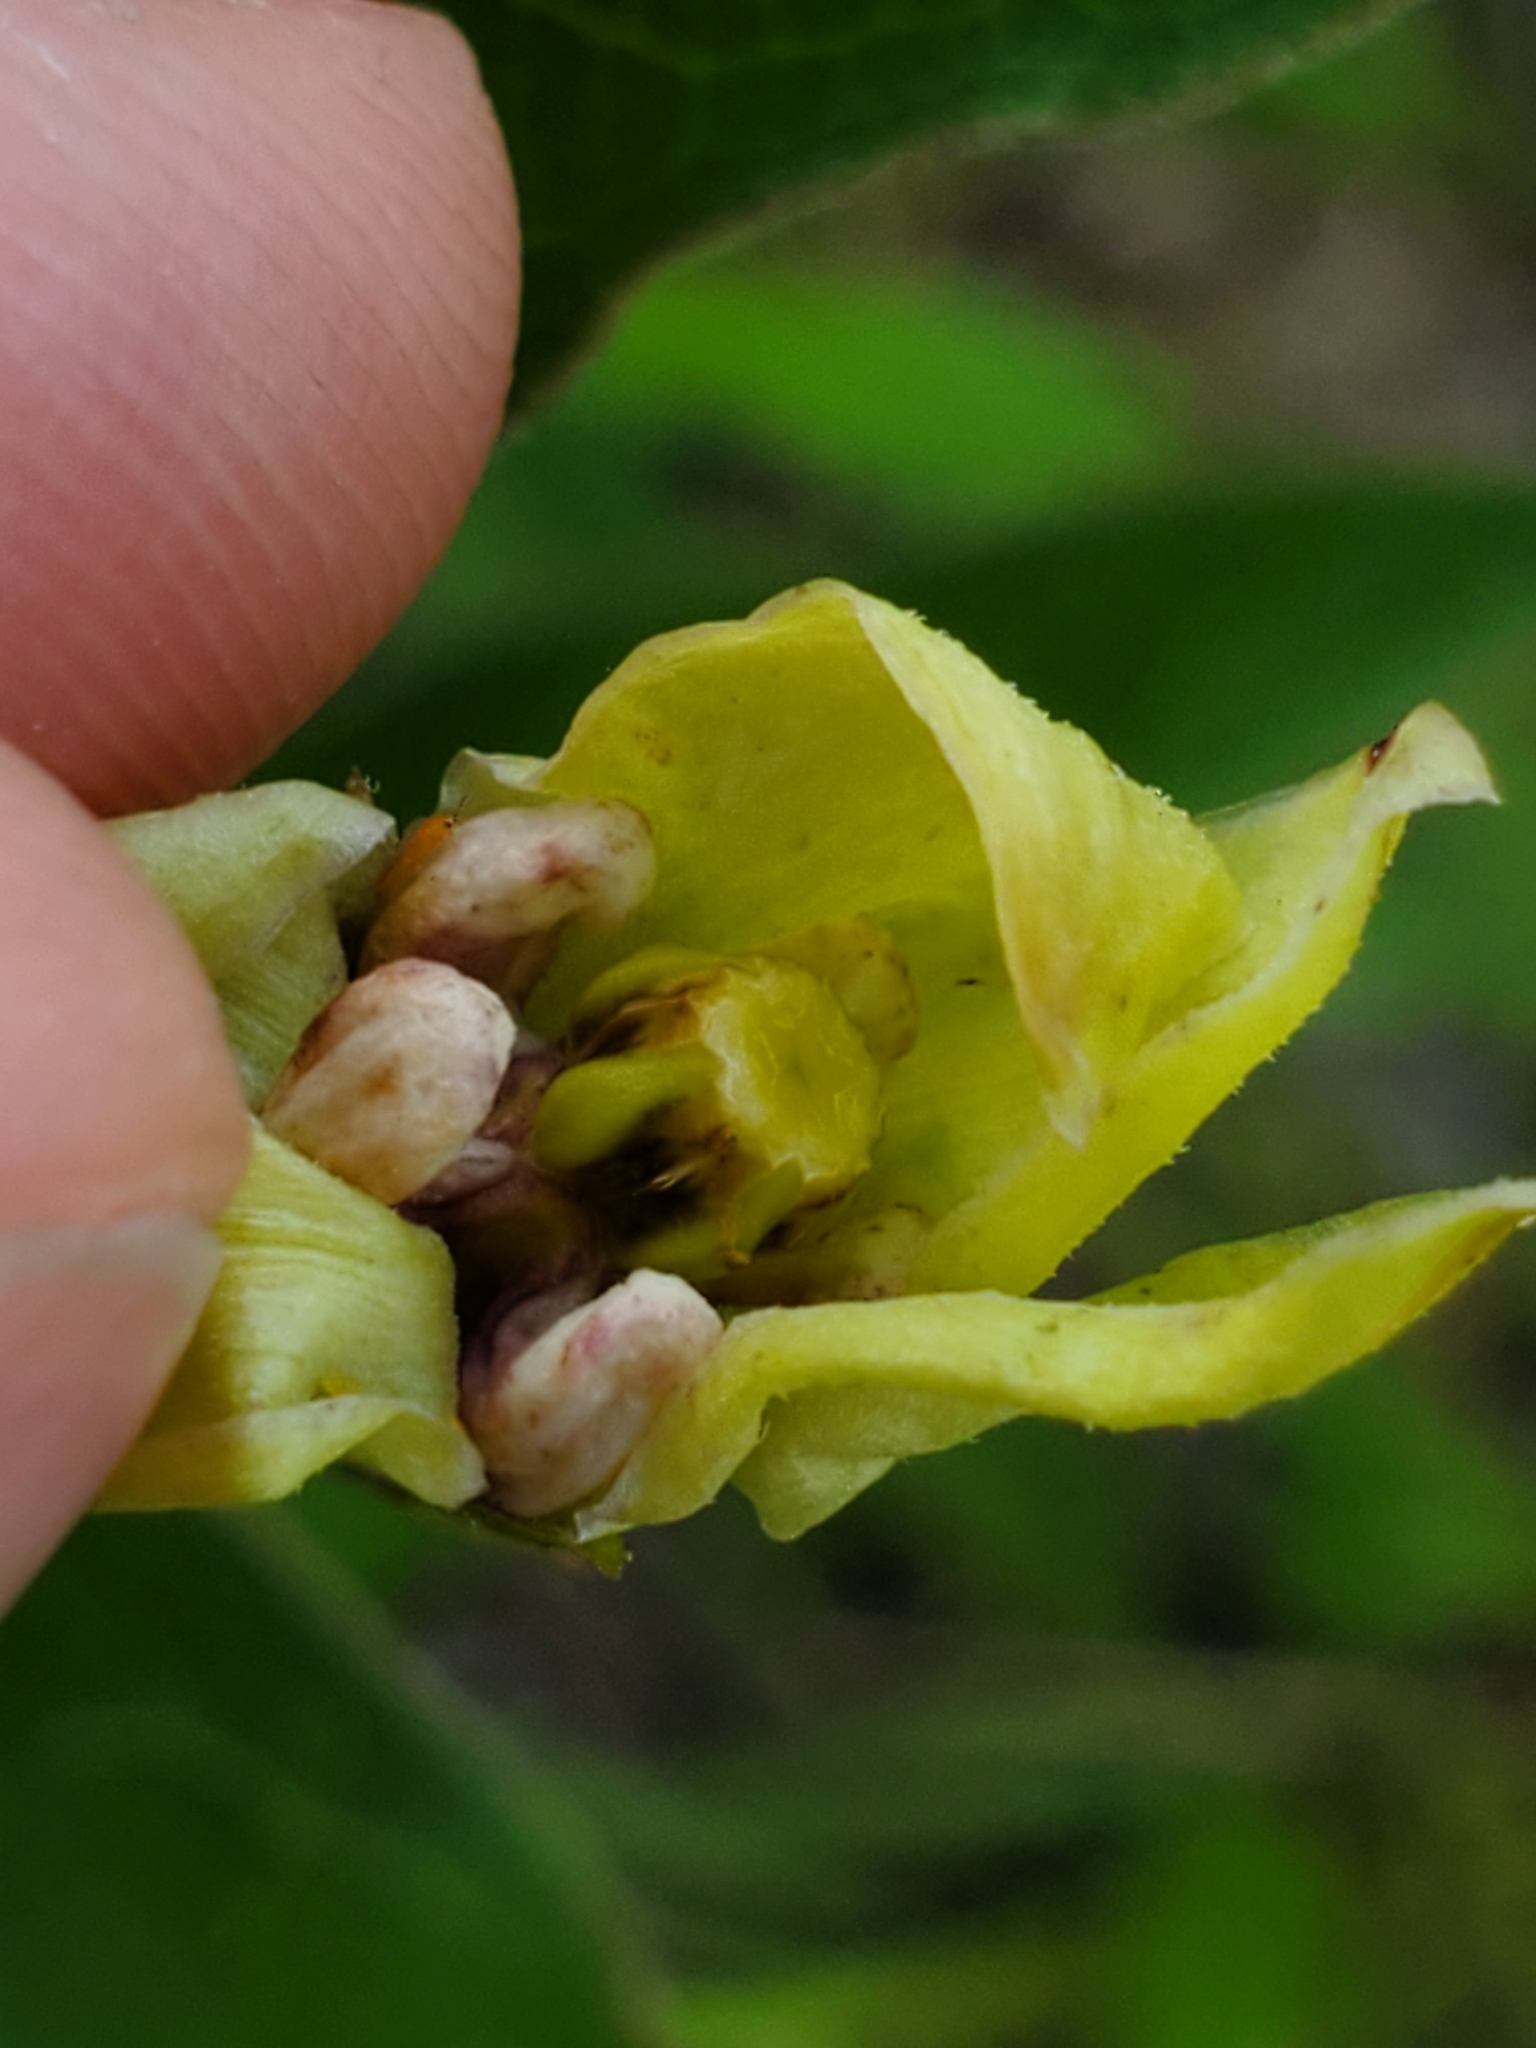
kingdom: Plantae
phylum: Tracheophyta
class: Magnoliopsida
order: Gentianales
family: Apocynaceae
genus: Asclepias
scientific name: Asclepias viridis
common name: Antelope-horns
